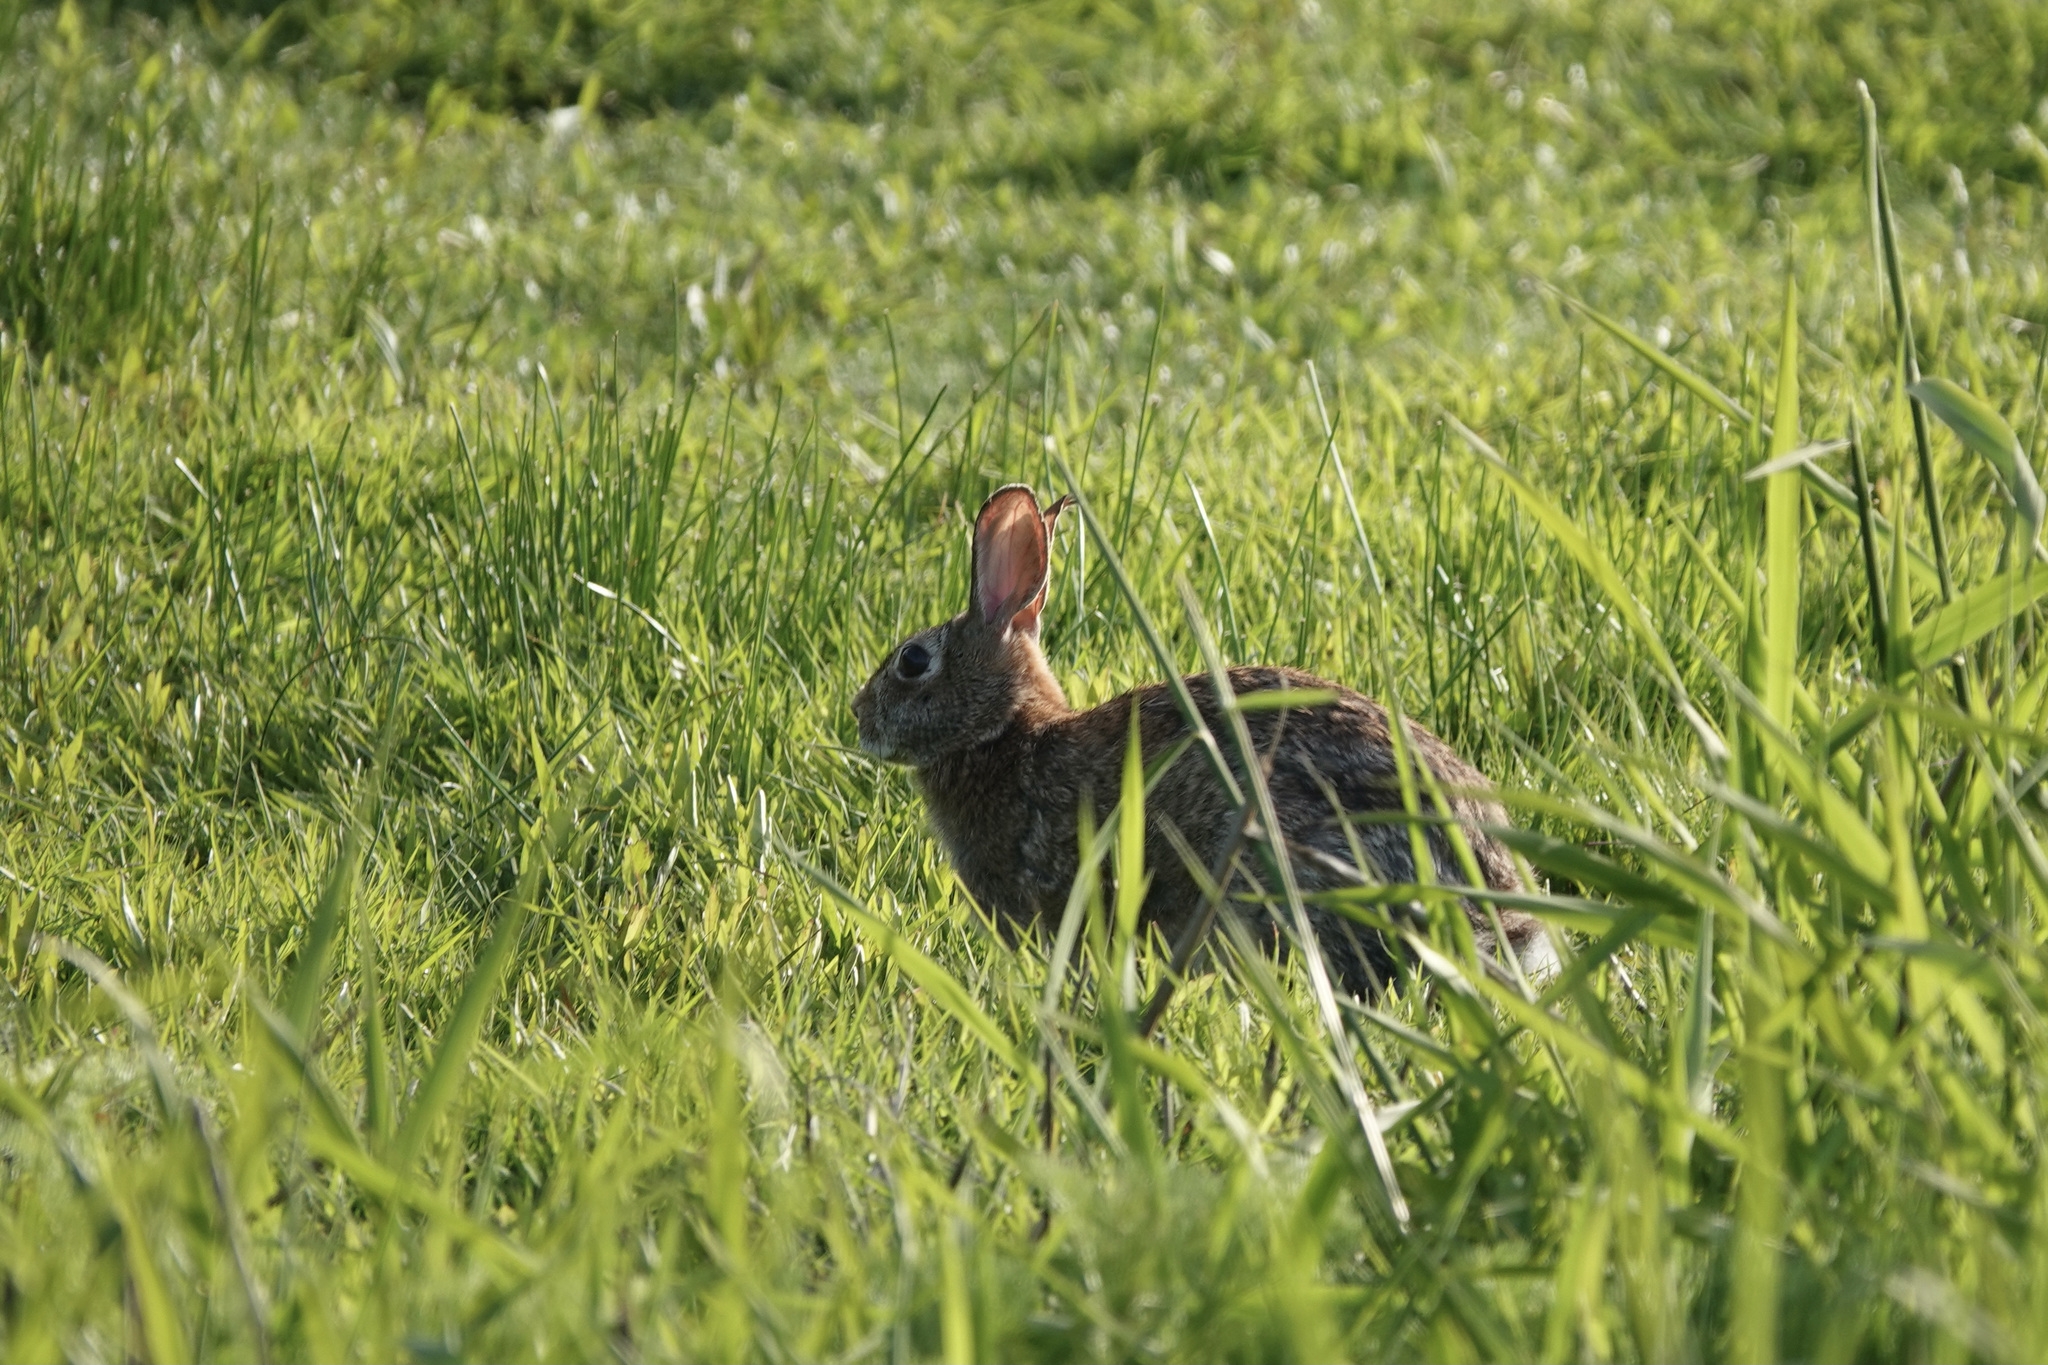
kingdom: Animalia
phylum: Chordata
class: Mammalia
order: Lagomorpha
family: Leporidae
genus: Sylvilagus
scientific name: Sylvilagus floridanus
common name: Eastern cottontail
